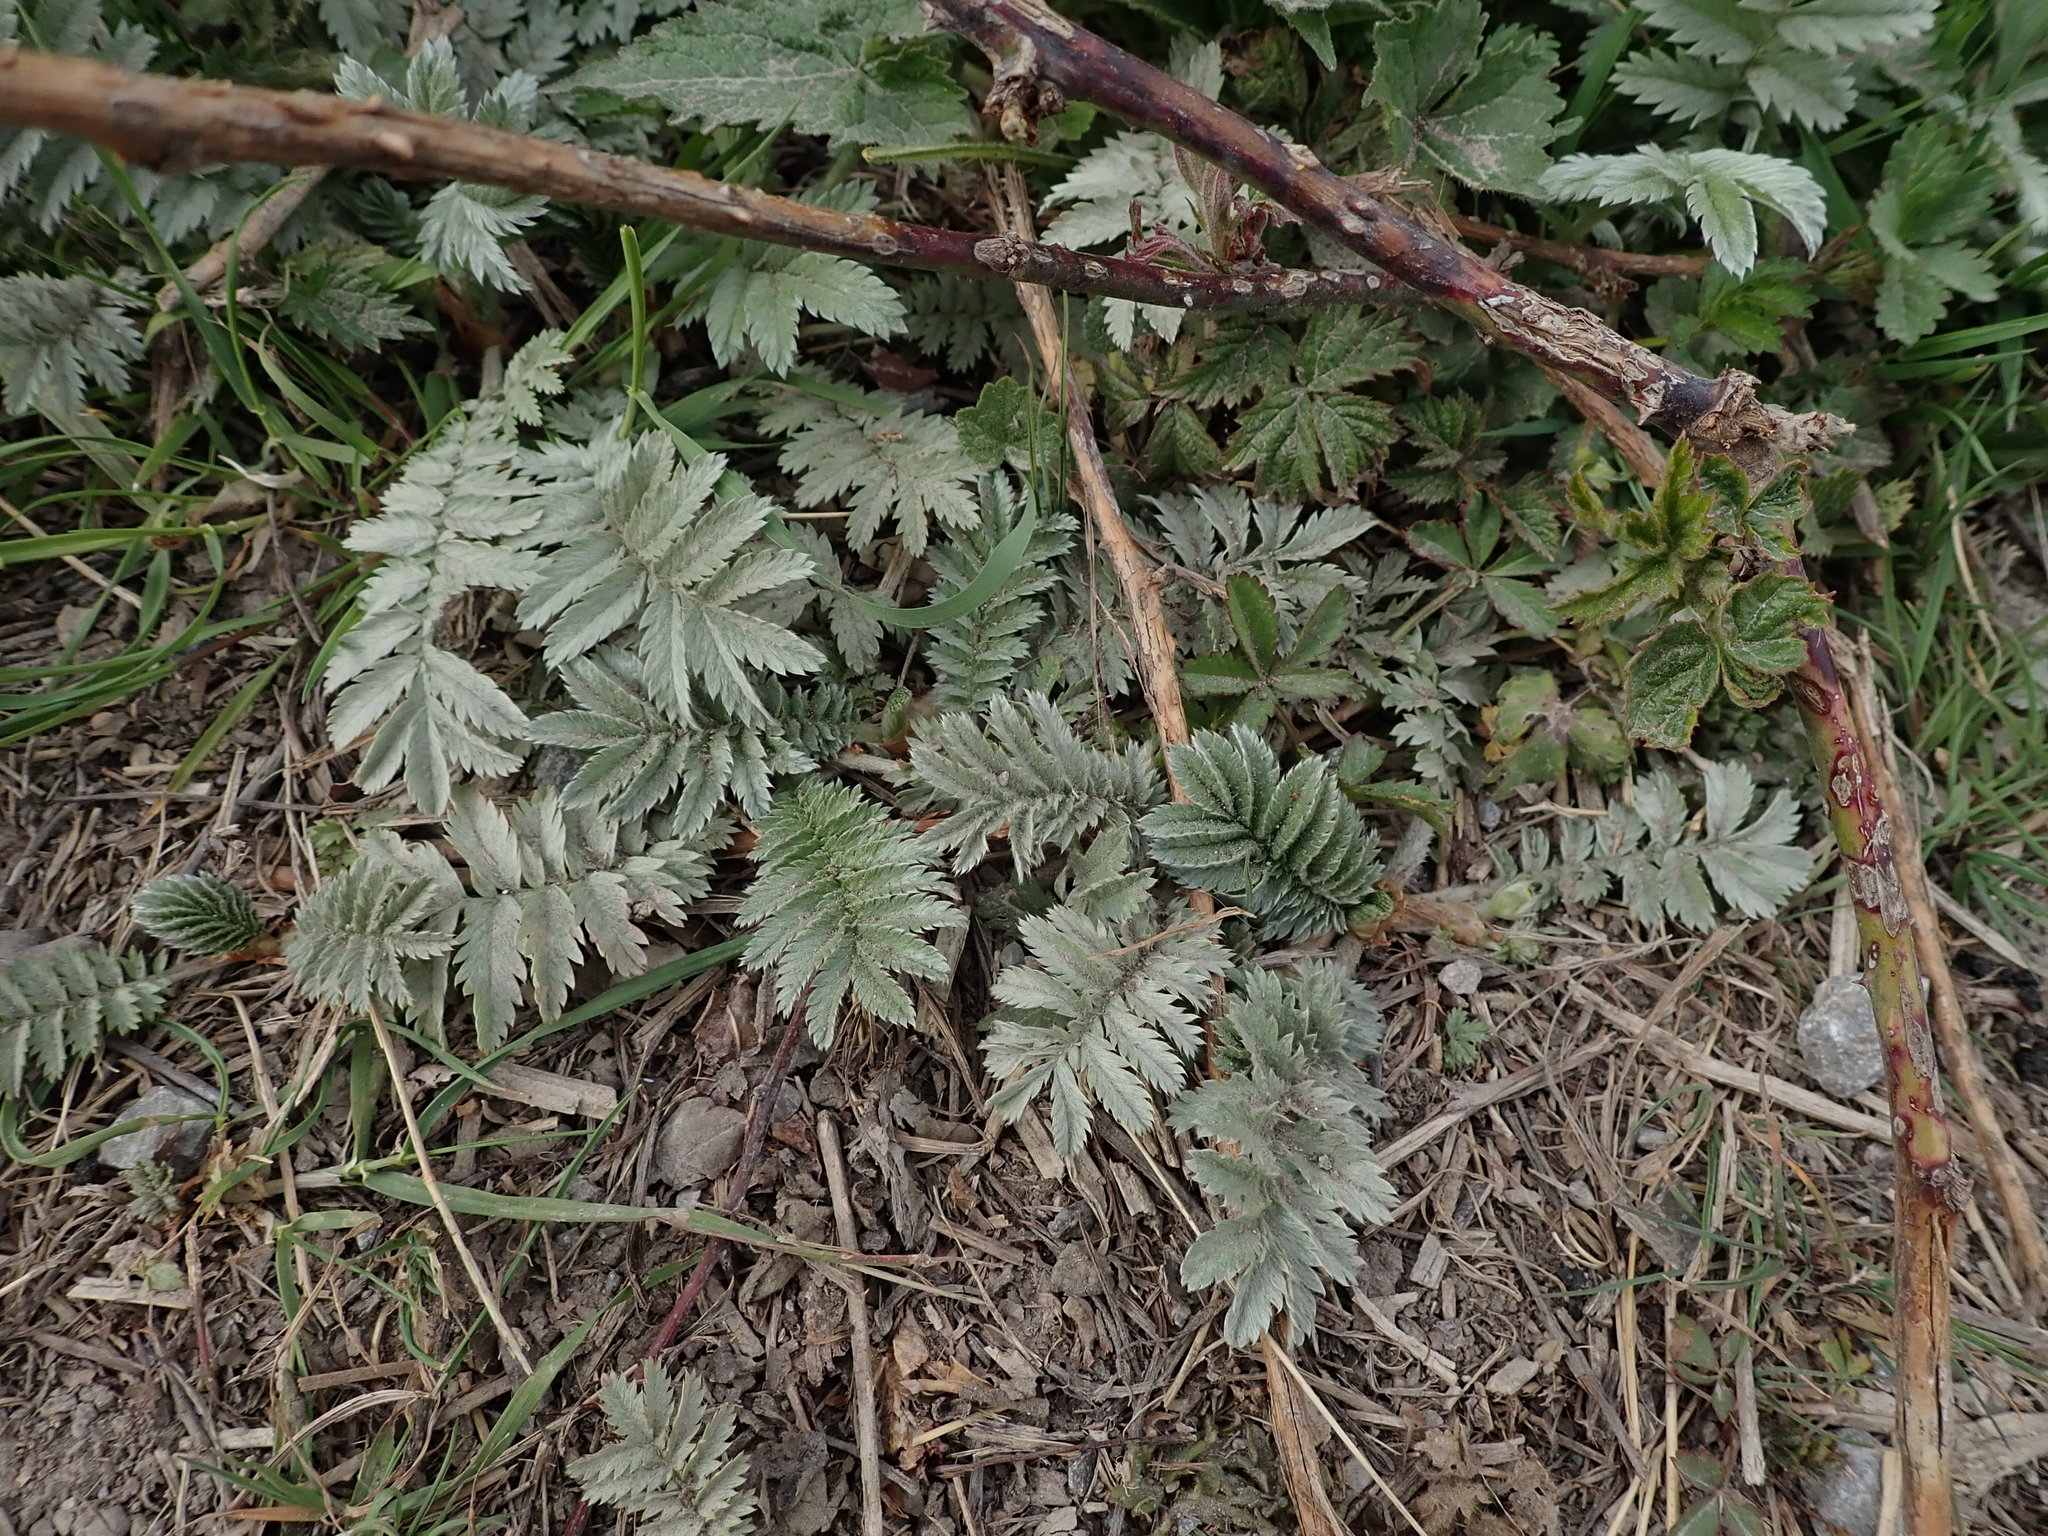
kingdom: Plantae
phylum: Tracheophyta
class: Magnoliopsida
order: Rosales
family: Rosaceae
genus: Argentina
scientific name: Argentina anserina
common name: Common silverweed
